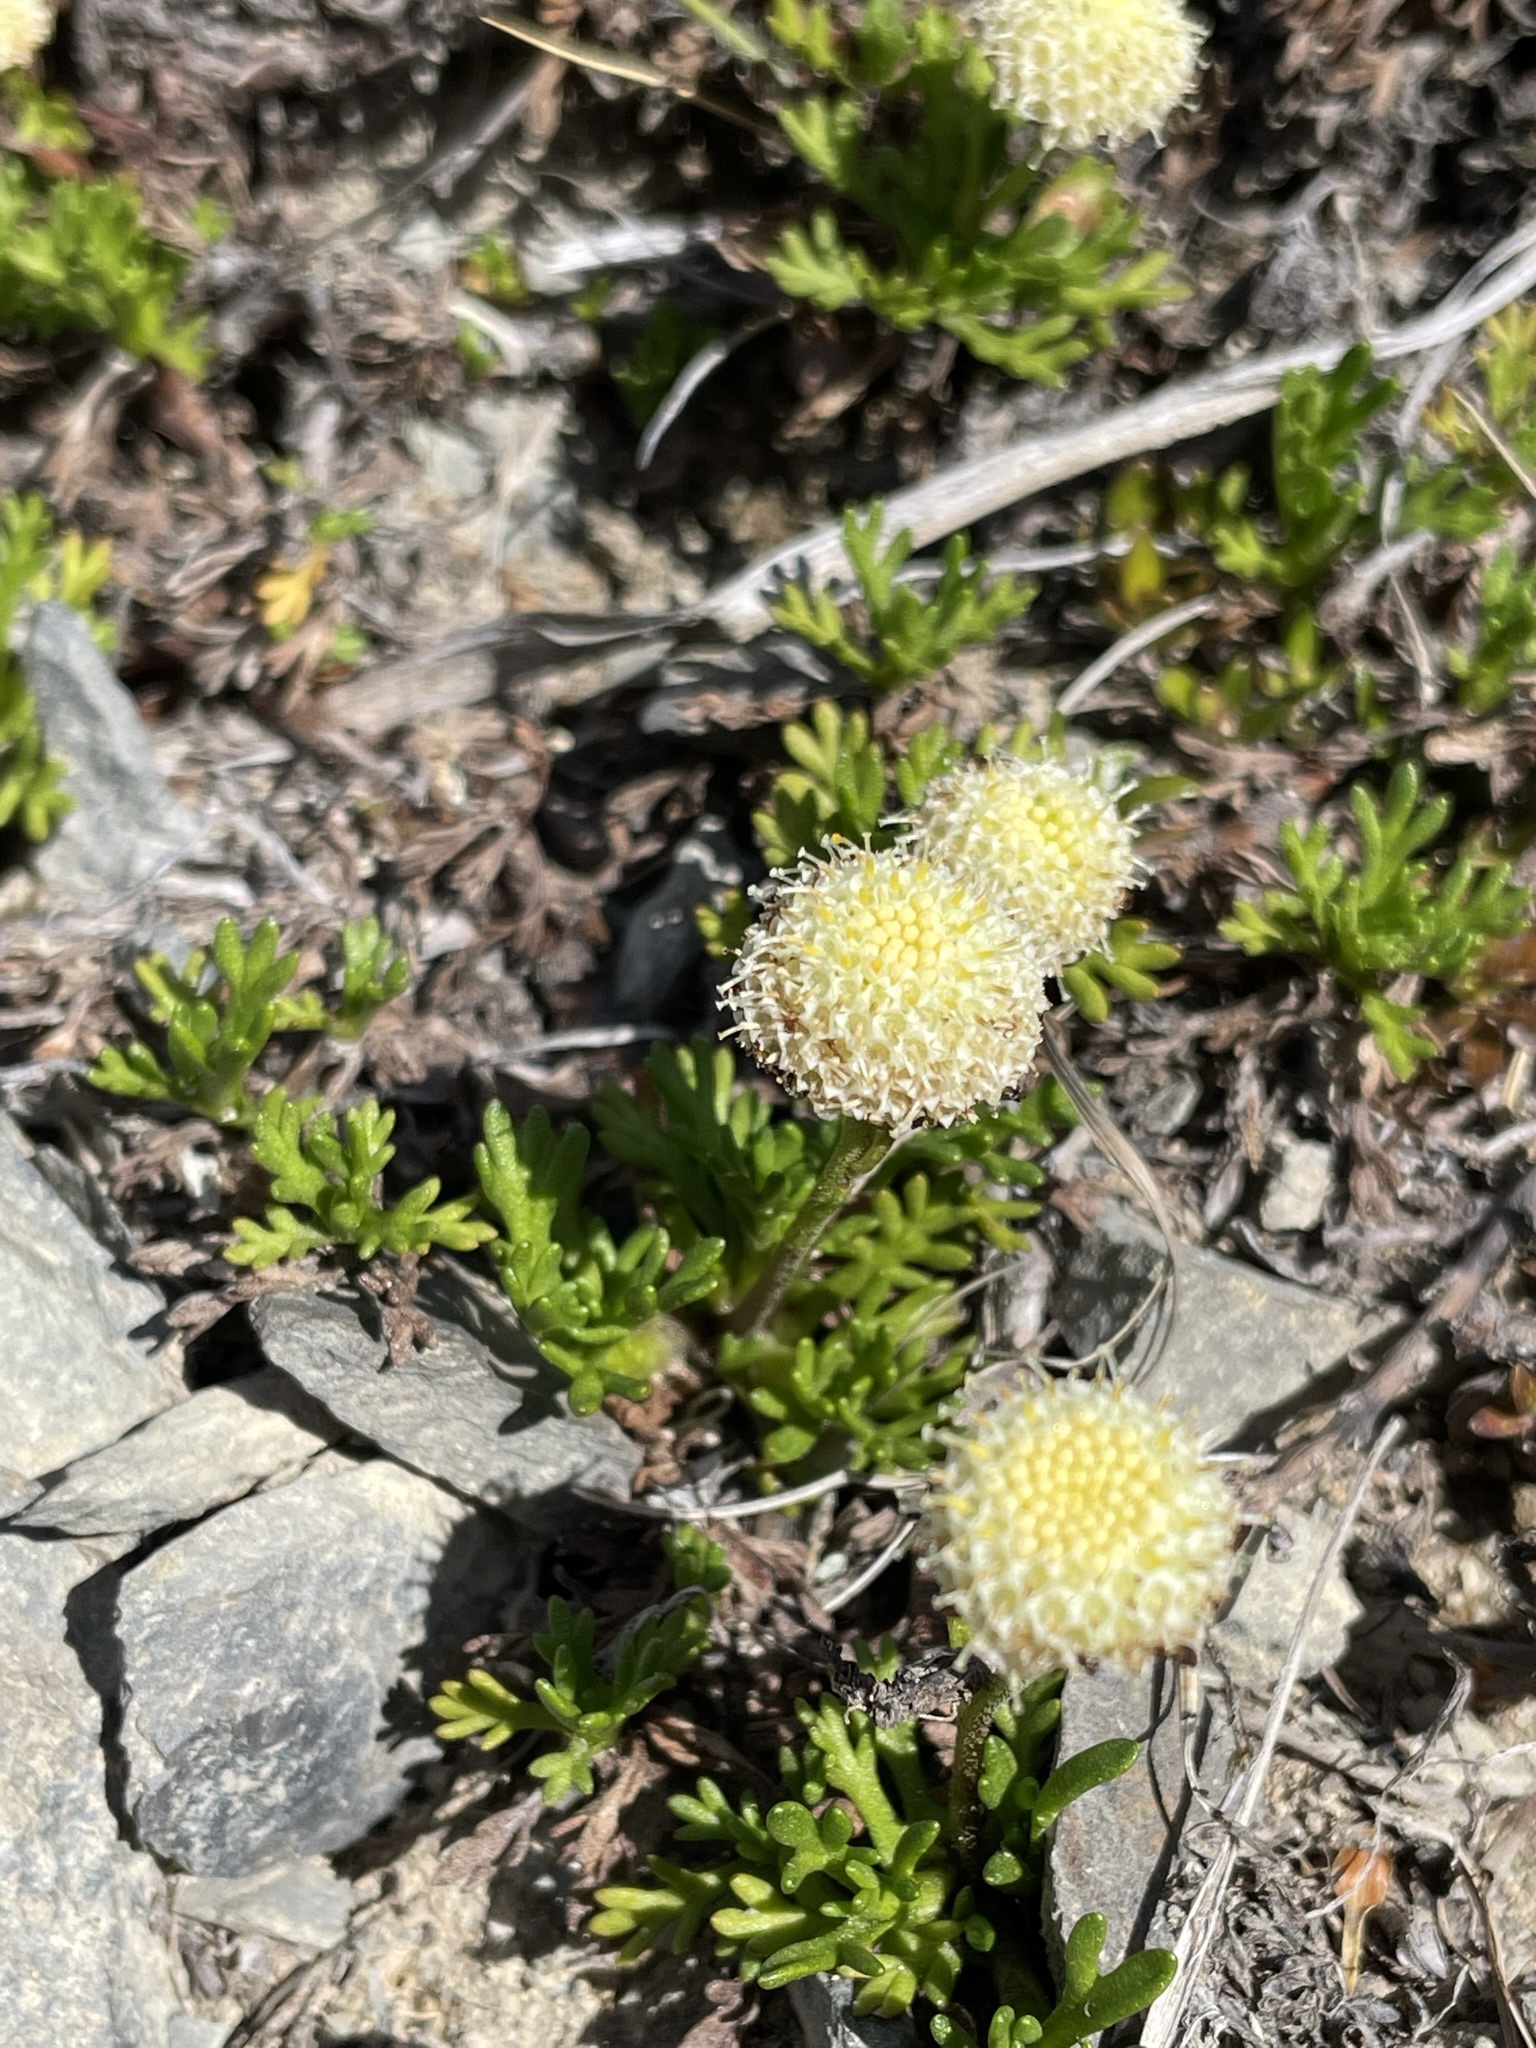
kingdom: Plantae
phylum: Tracheophyta
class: Magnoliopsida
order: Asterales
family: Asteraceae
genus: Leptinella
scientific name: Leptinella pyrethrifolia
